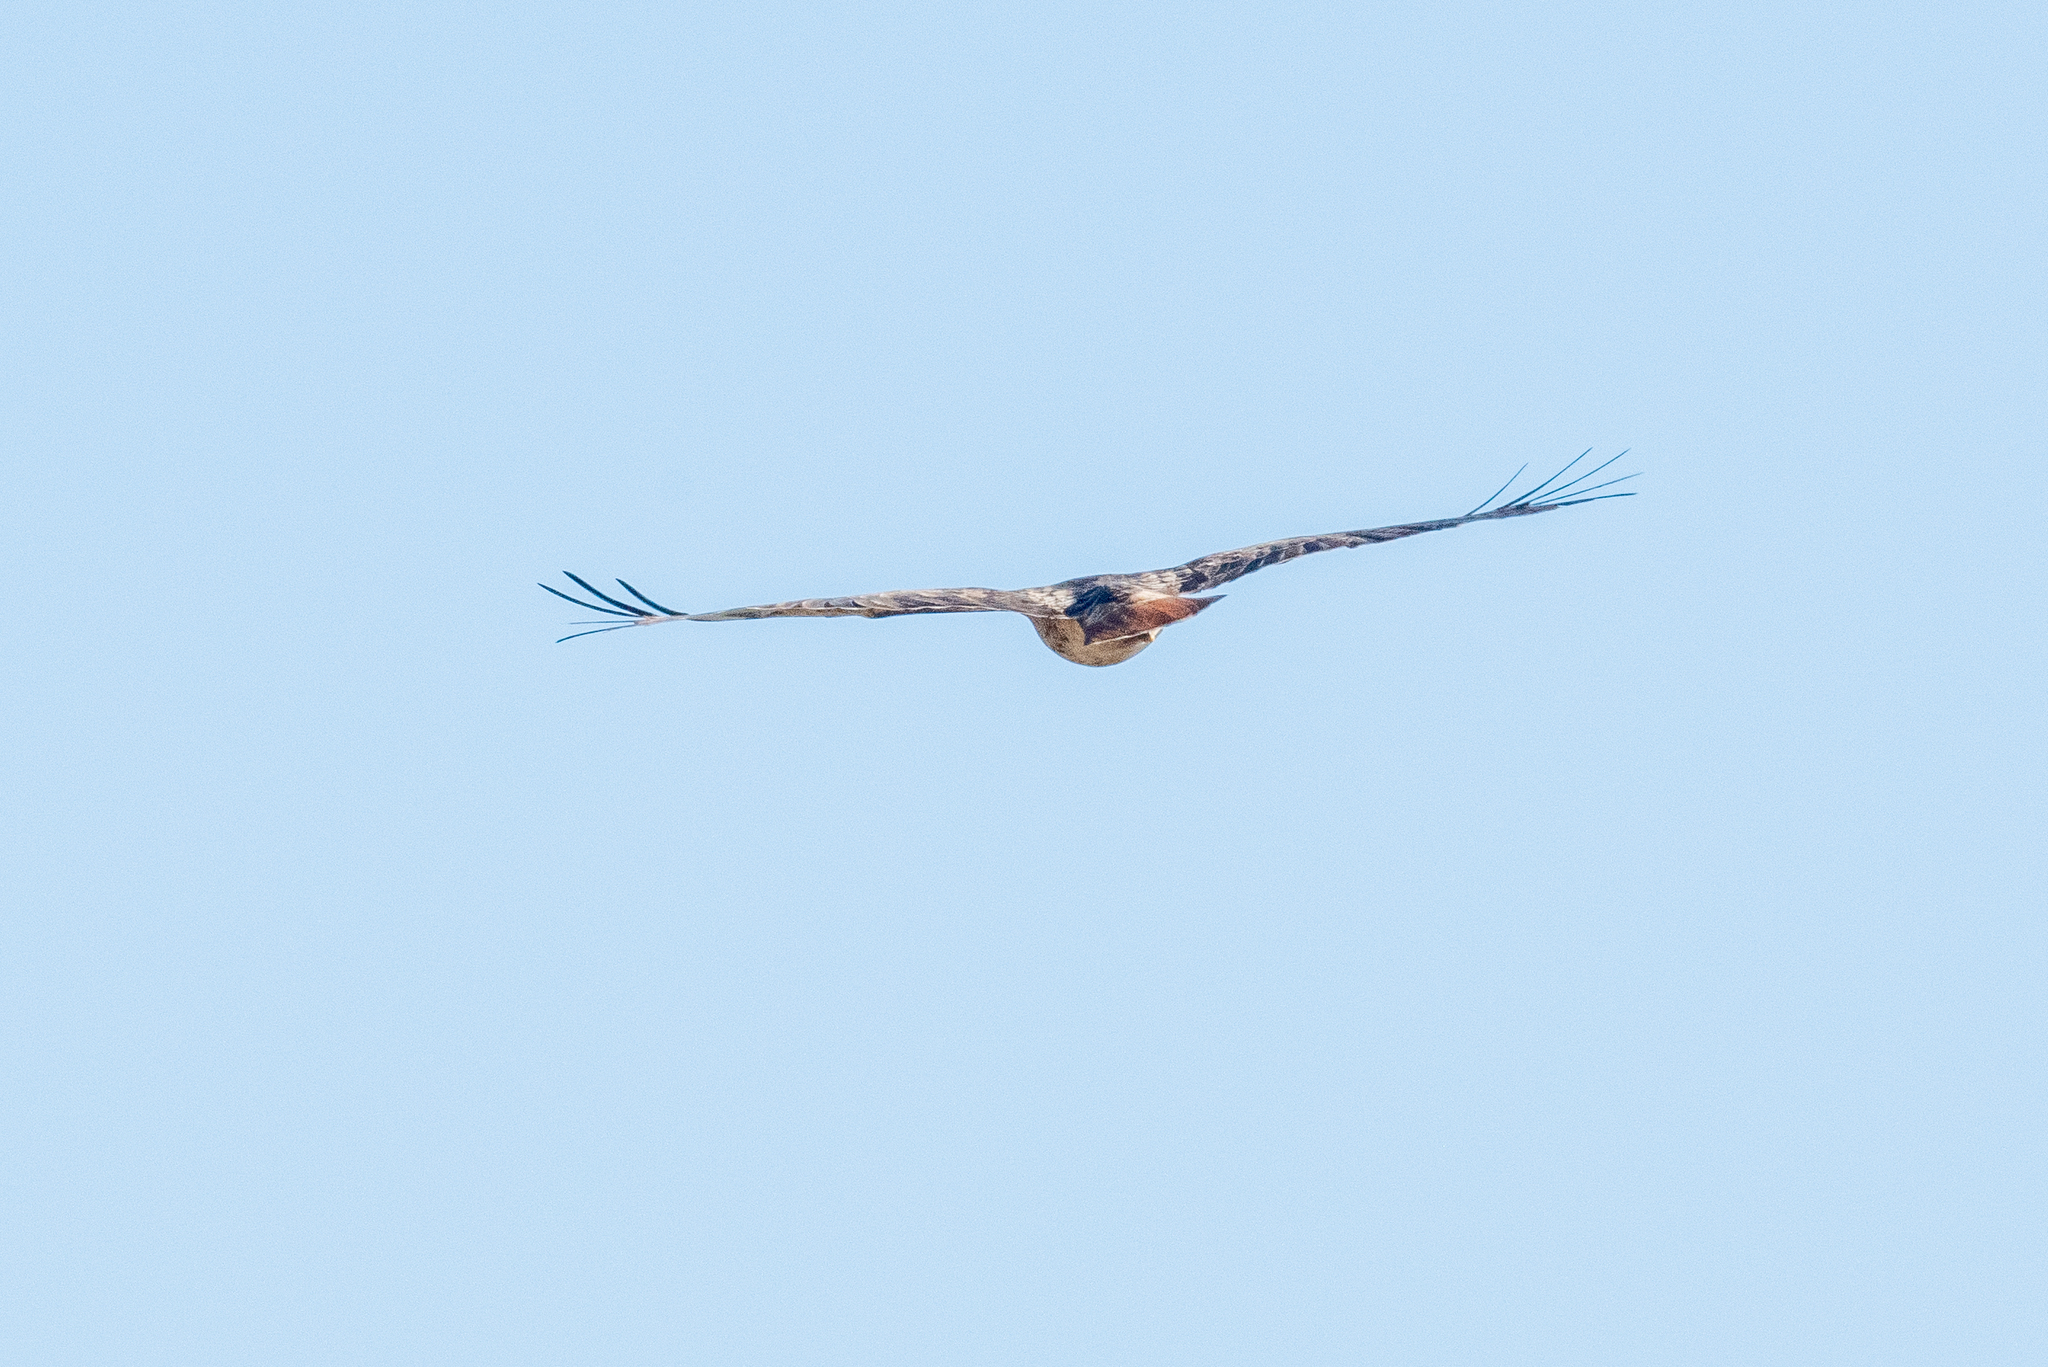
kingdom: Animalia
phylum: Chordata
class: Aves
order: Accipitriformes
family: Accipitridae
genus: Buteo
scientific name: Buteo jamaicensis
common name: Red-tailed hawk
